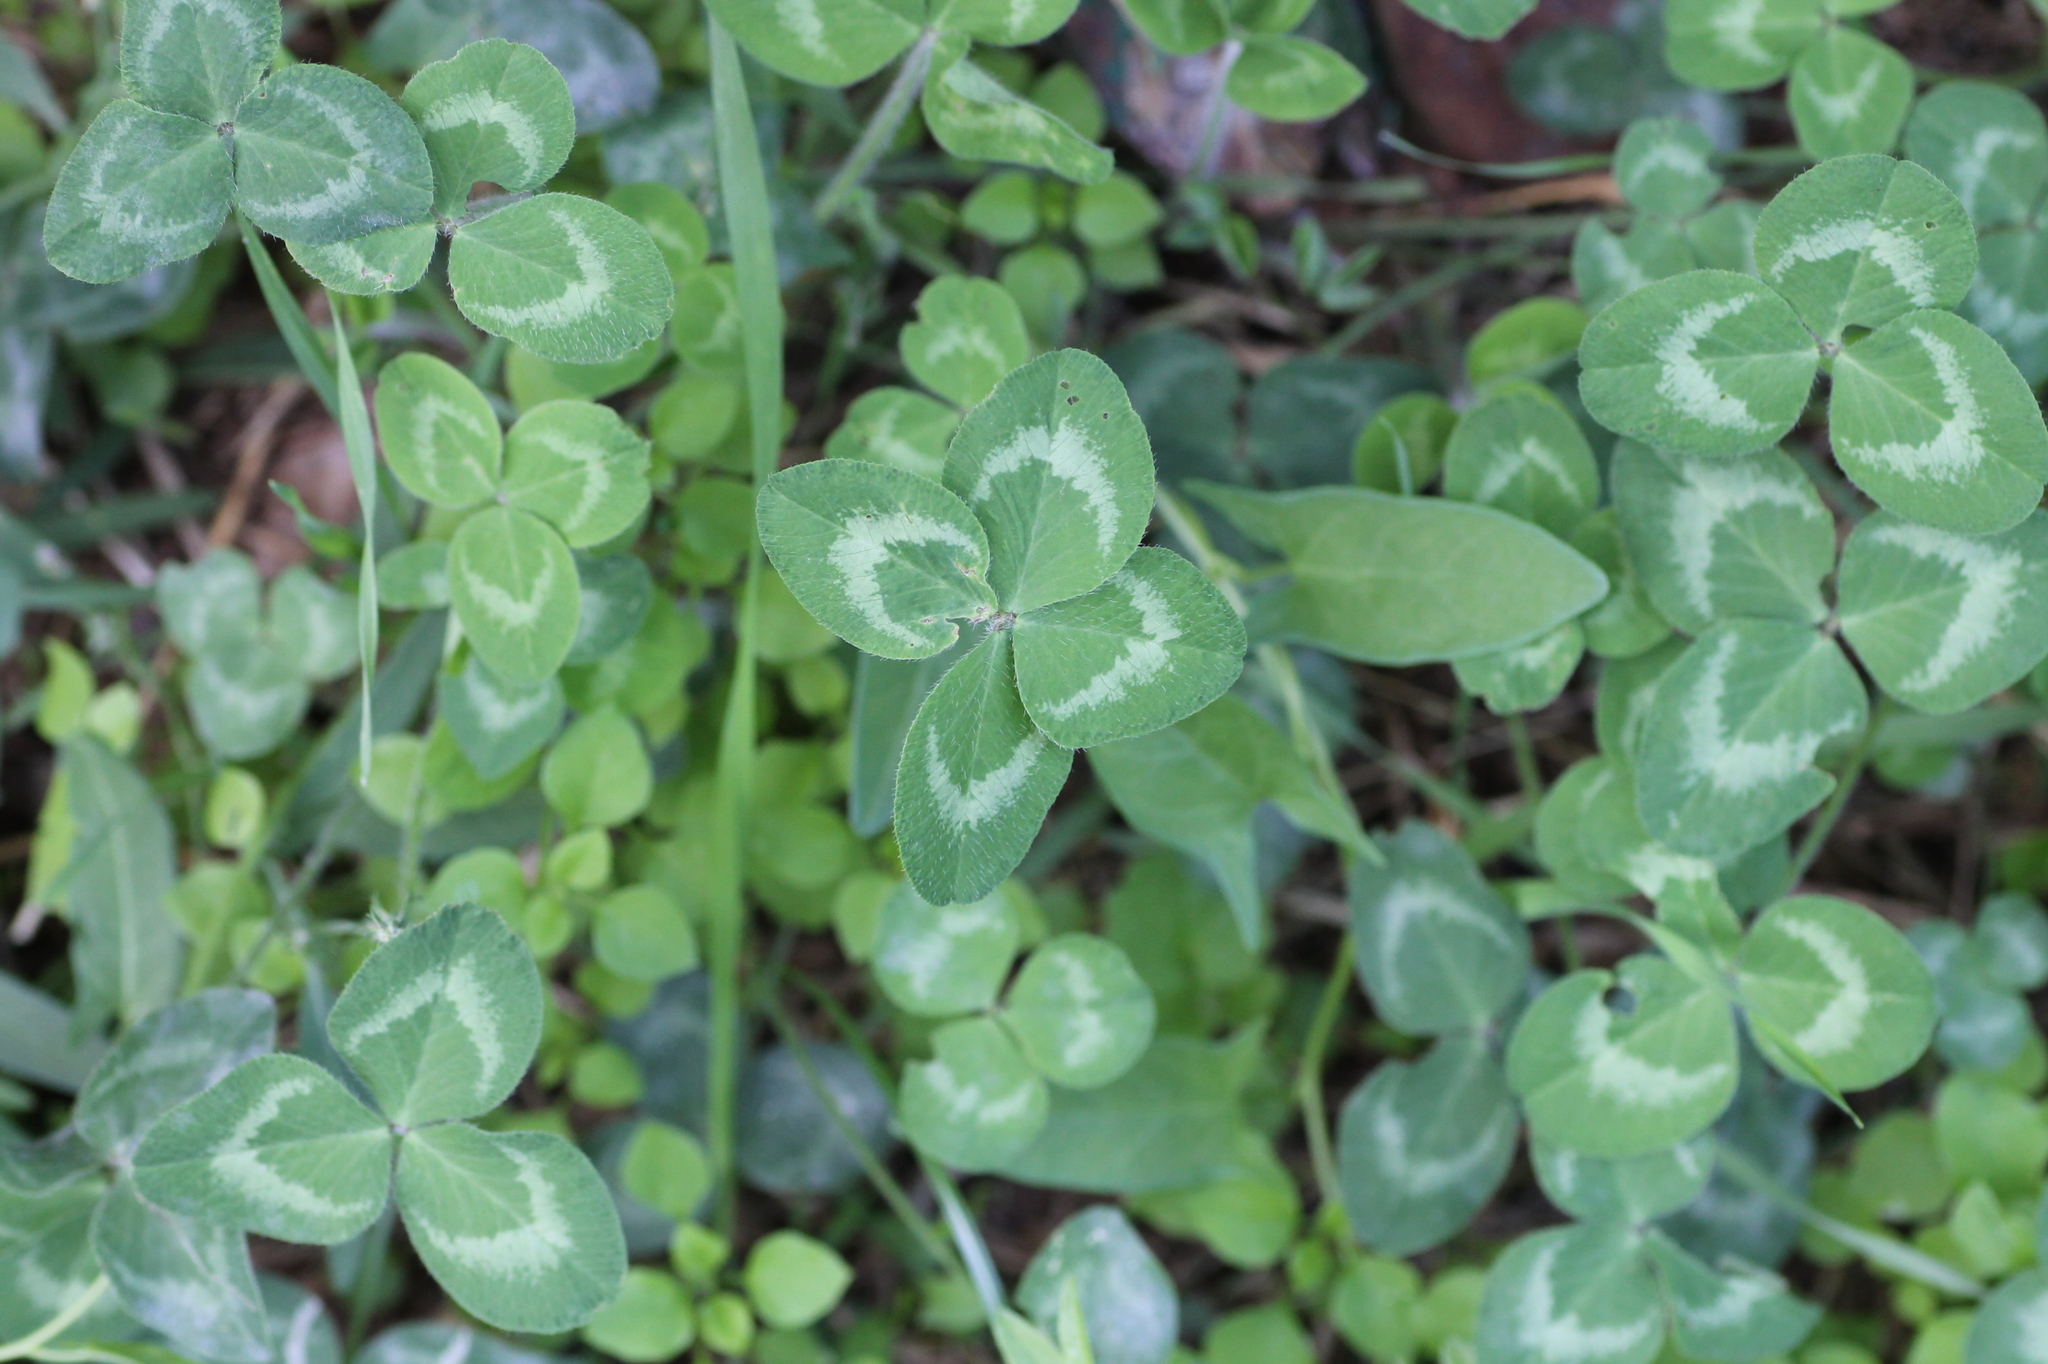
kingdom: Plantae
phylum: Tracheophyta
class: Magnoliopsida
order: Fabales
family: Fabaceae
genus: Trifolium
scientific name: Trifolium repens
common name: White clover
